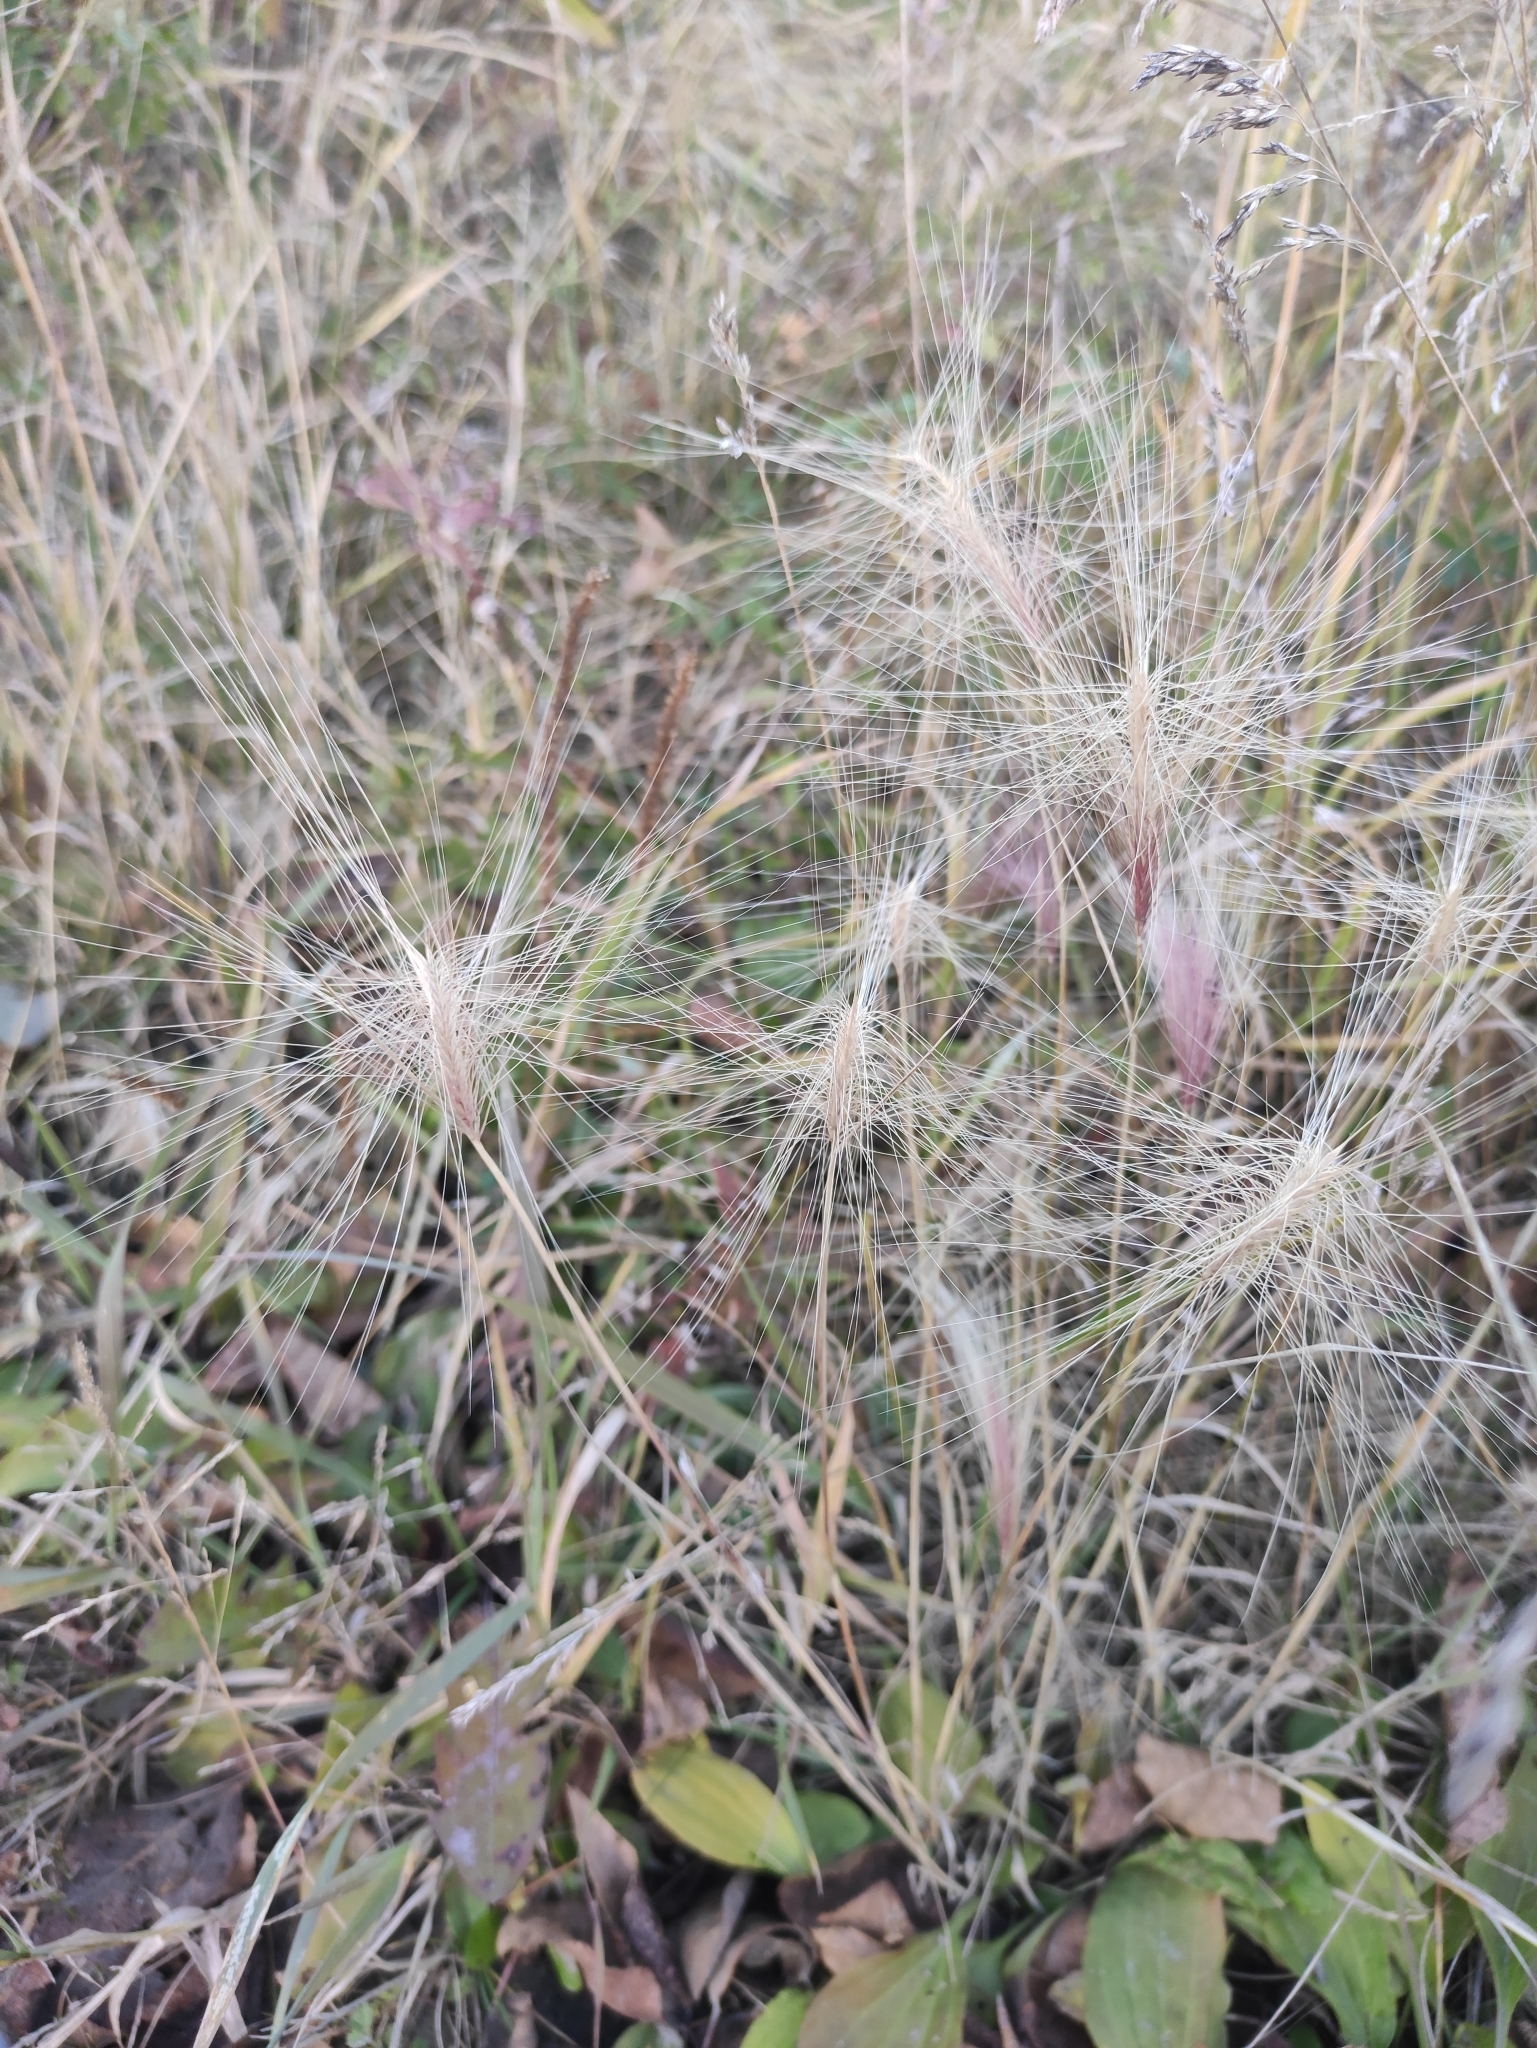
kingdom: Plantae
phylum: Tracheophyta
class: Liliopsida
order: Poales
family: Poaceae
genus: Hordeum
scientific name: Hordeum jubatum
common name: Foxtail barley
